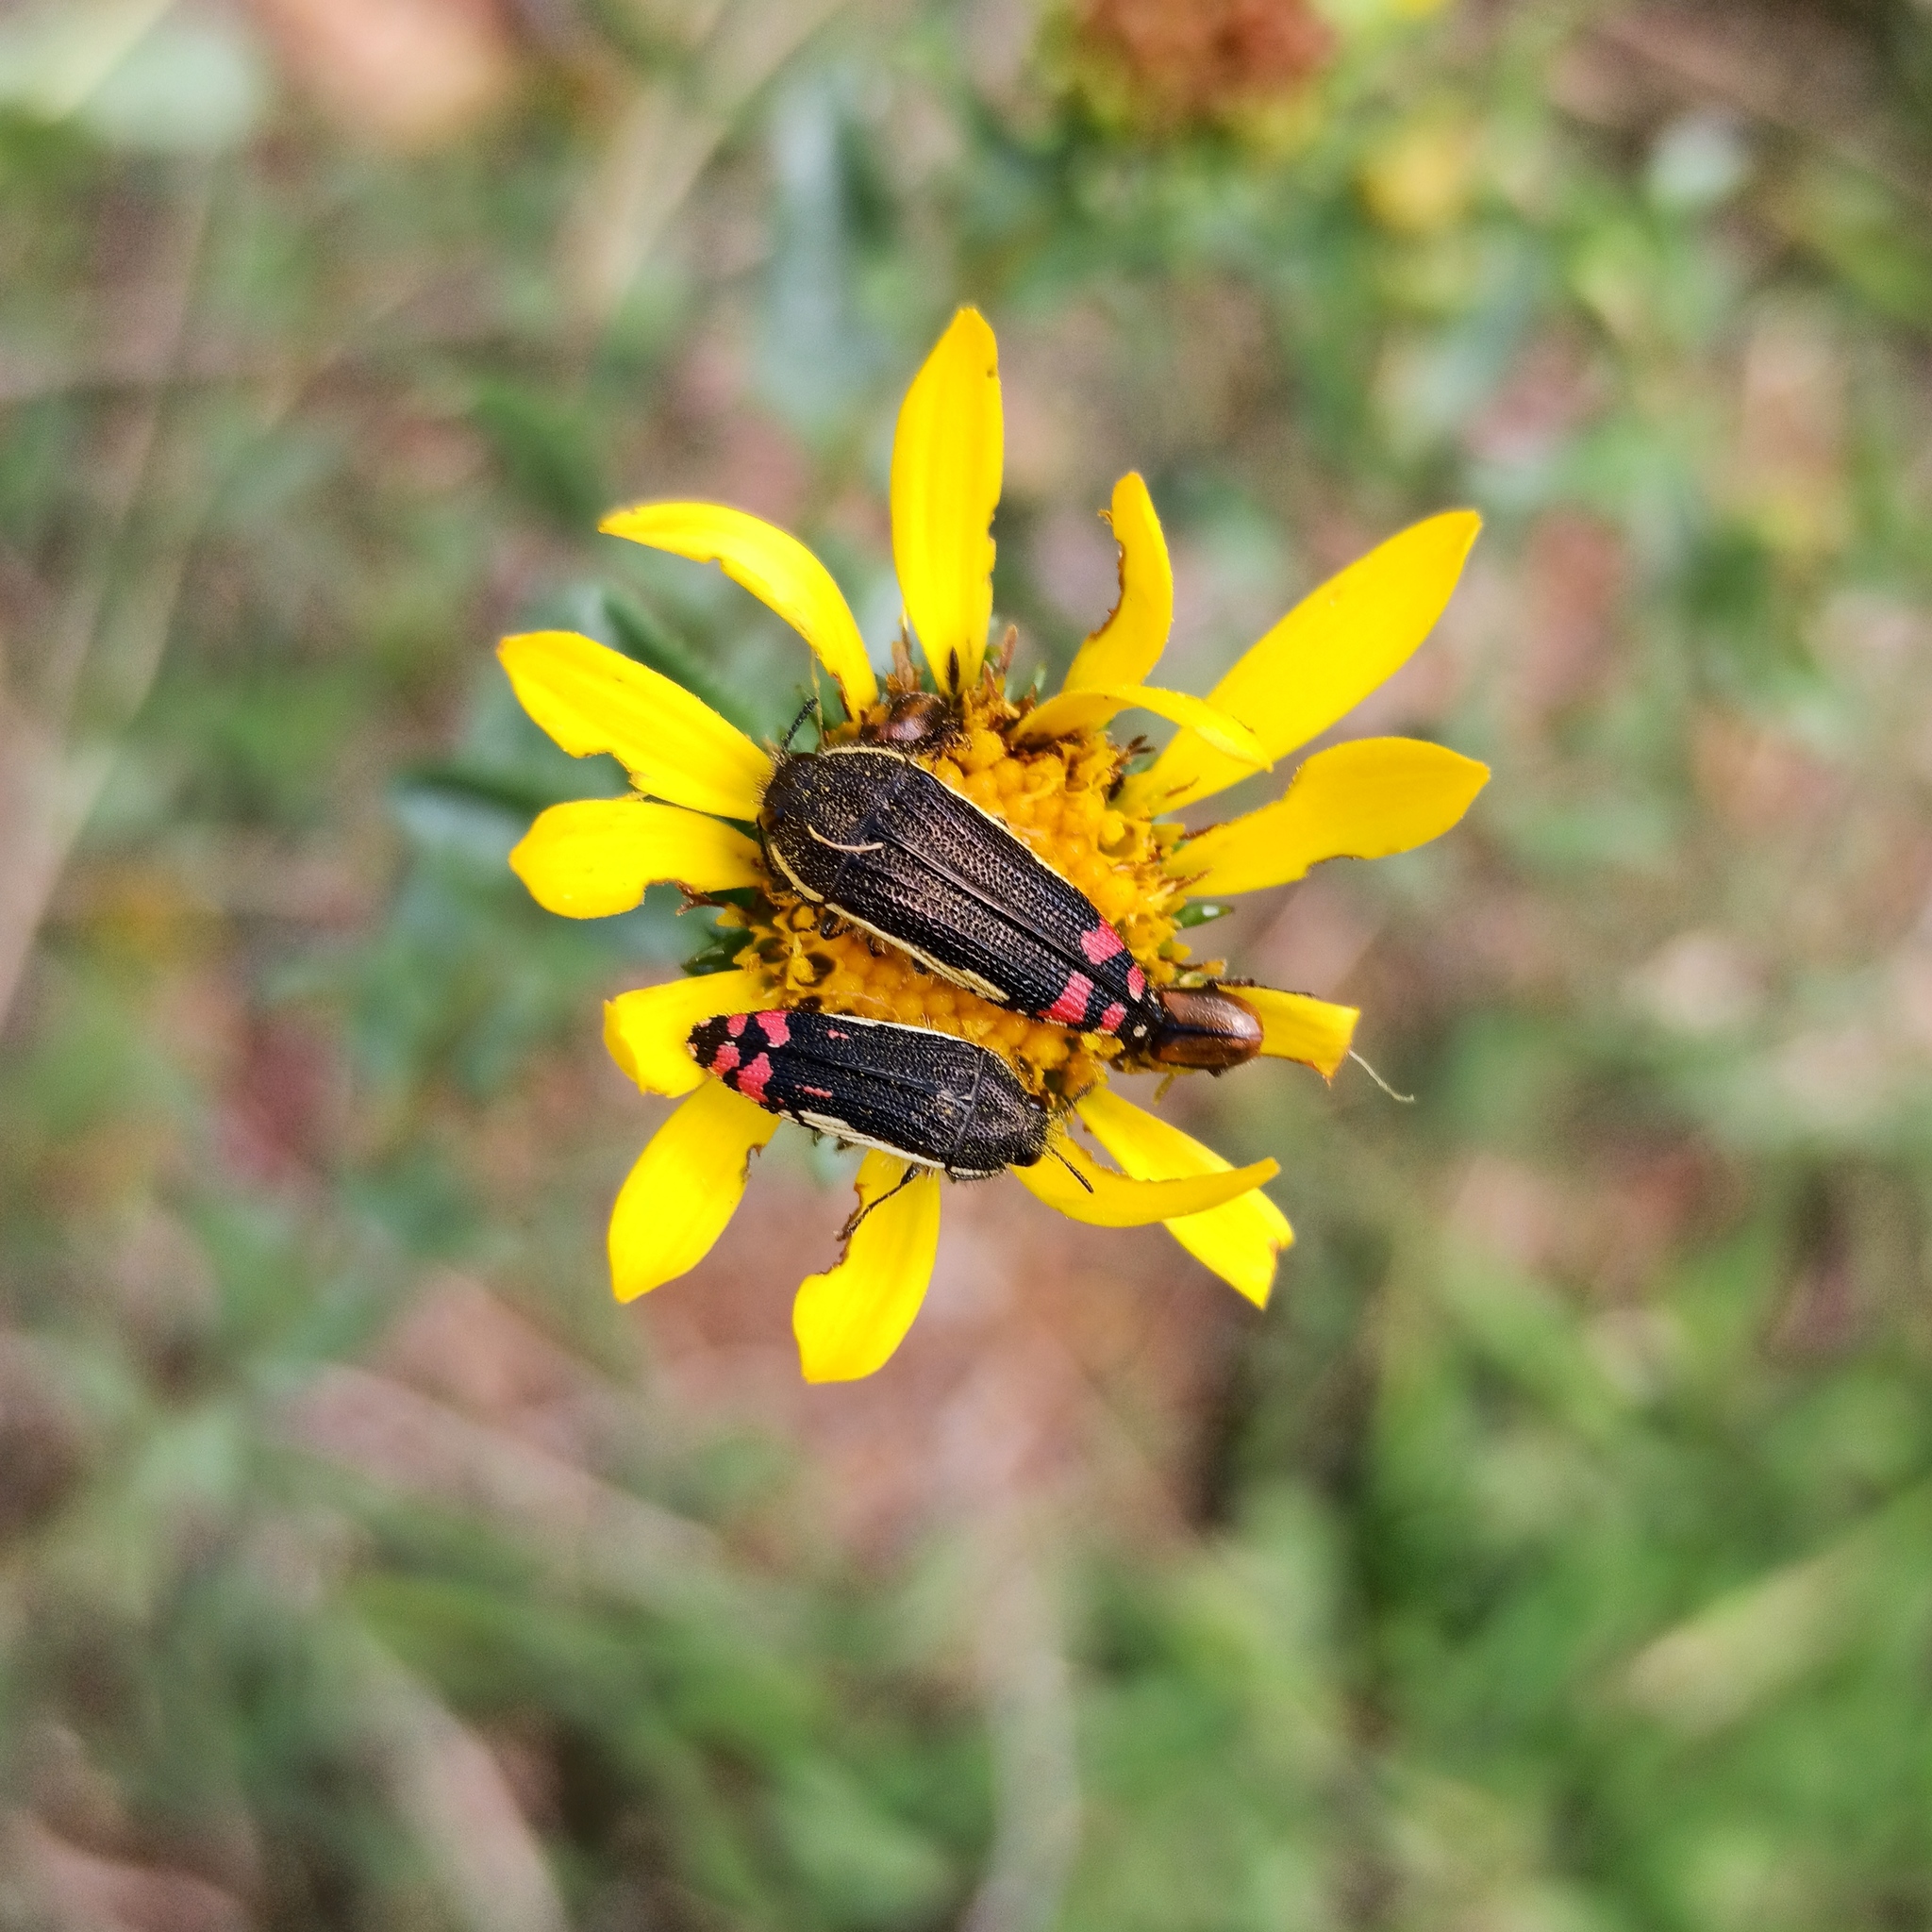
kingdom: Animalia
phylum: Arthropoda
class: Insecta
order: Coleoptera
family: Buprestidae
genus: Acmaeodera
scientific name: Acmaeodera flavomarginata
